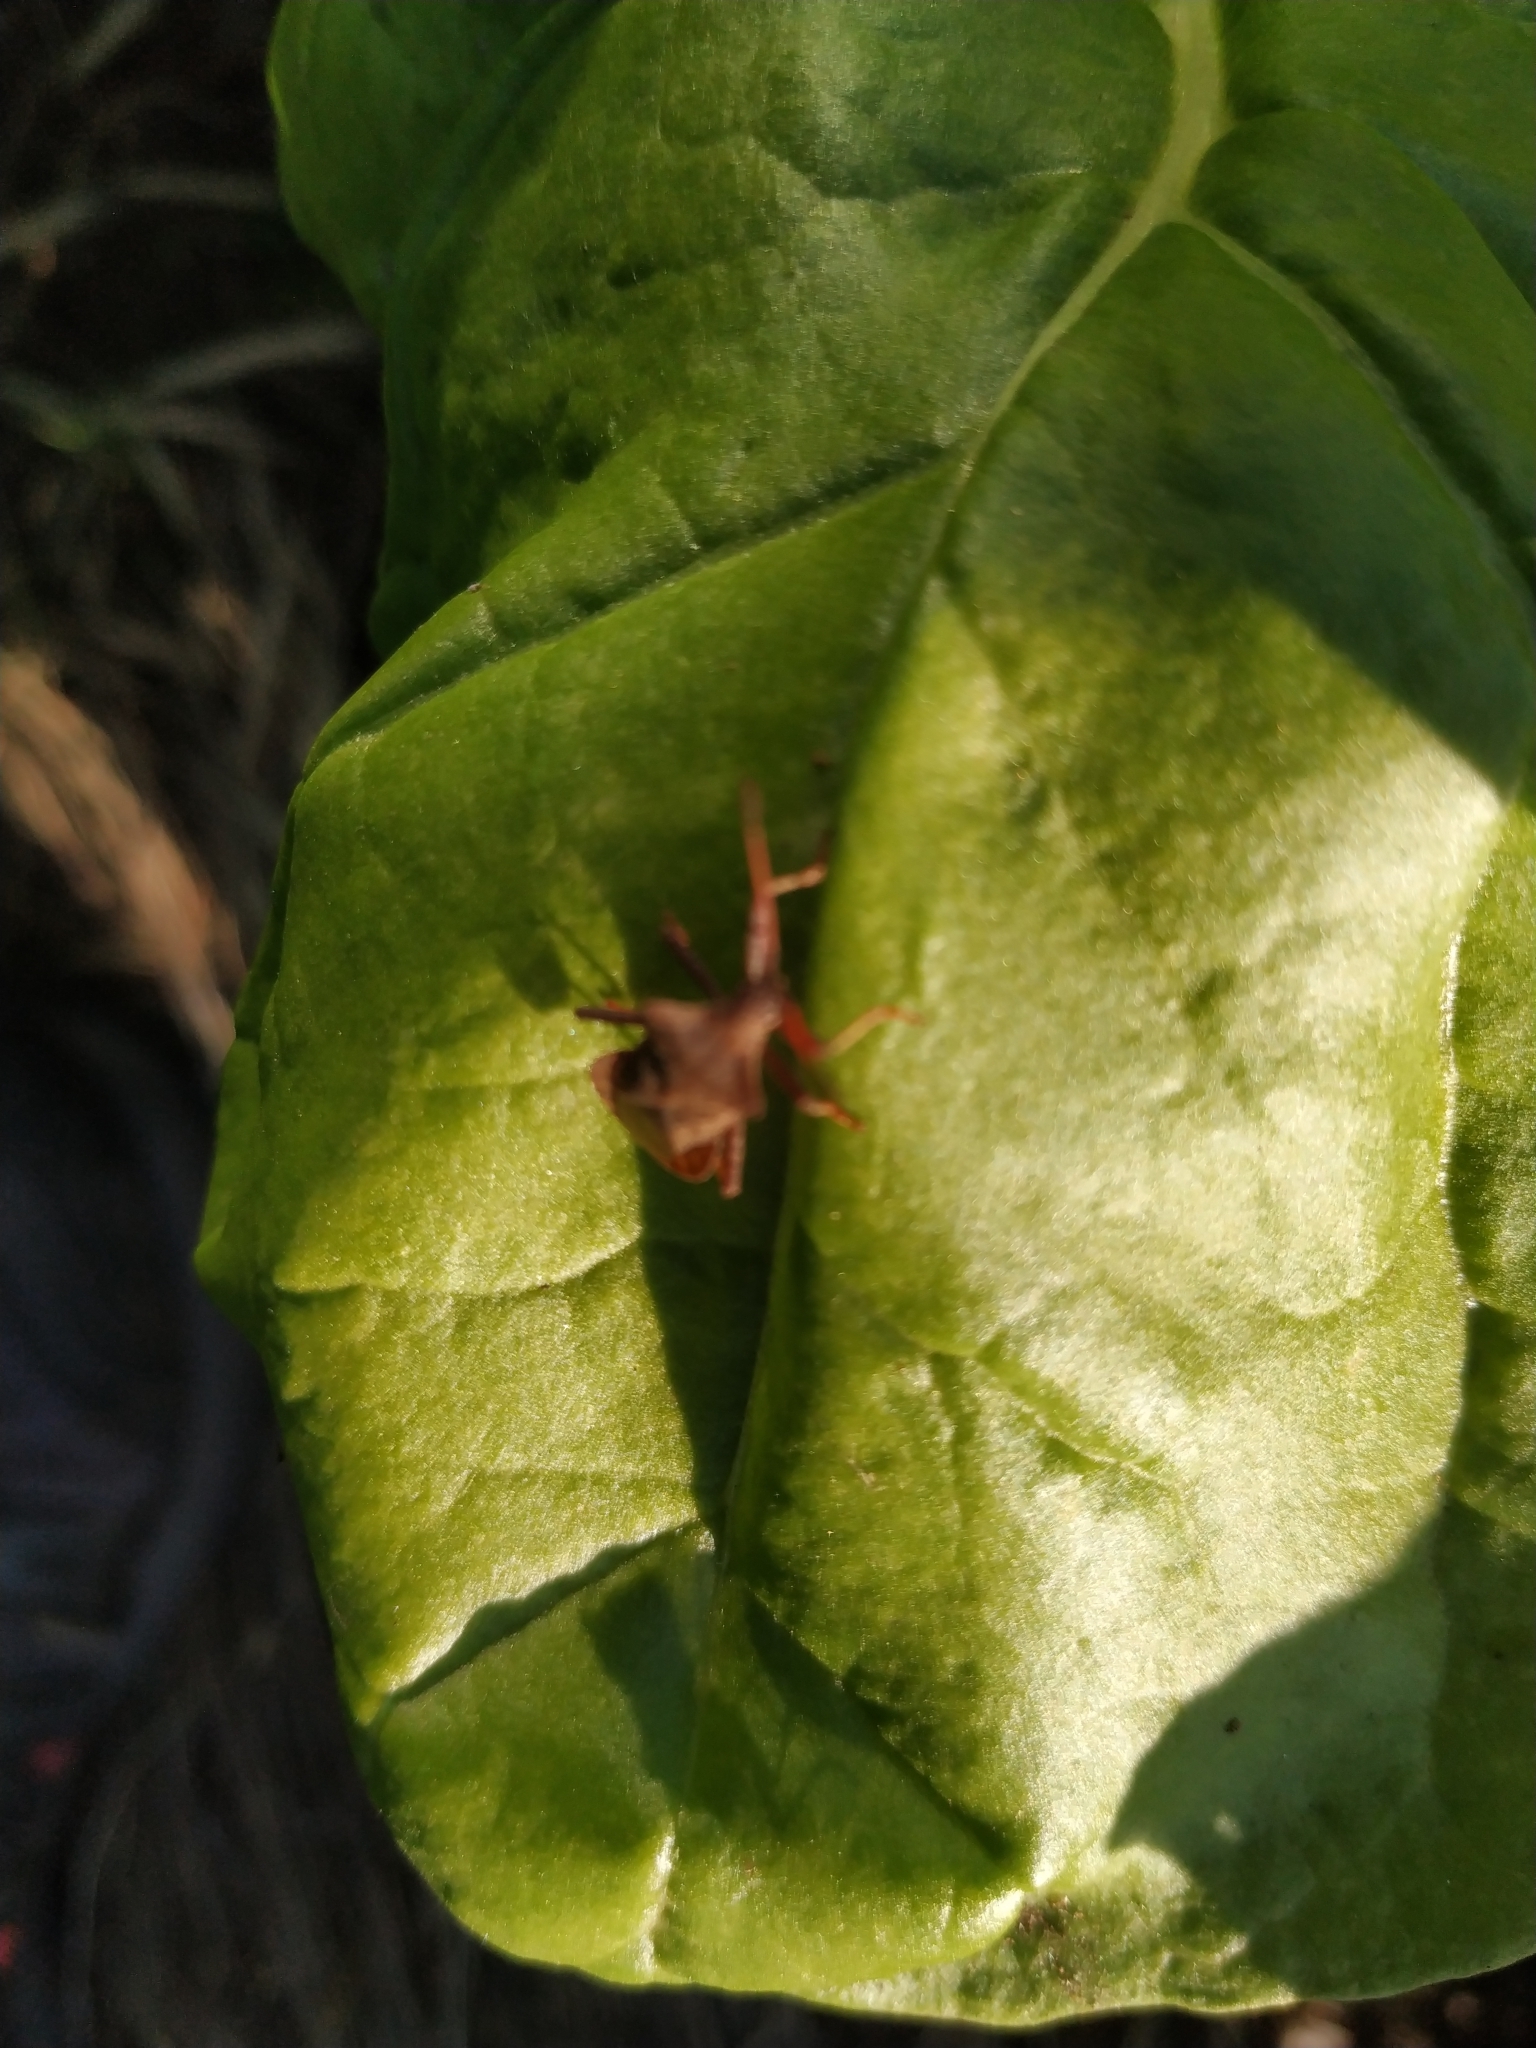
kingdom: Animalia
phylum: Arthropoda
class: Insecta
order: Hemiptera
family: Coreidae
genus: Coreus
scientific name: Coreus marginatus
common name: Dock bug
